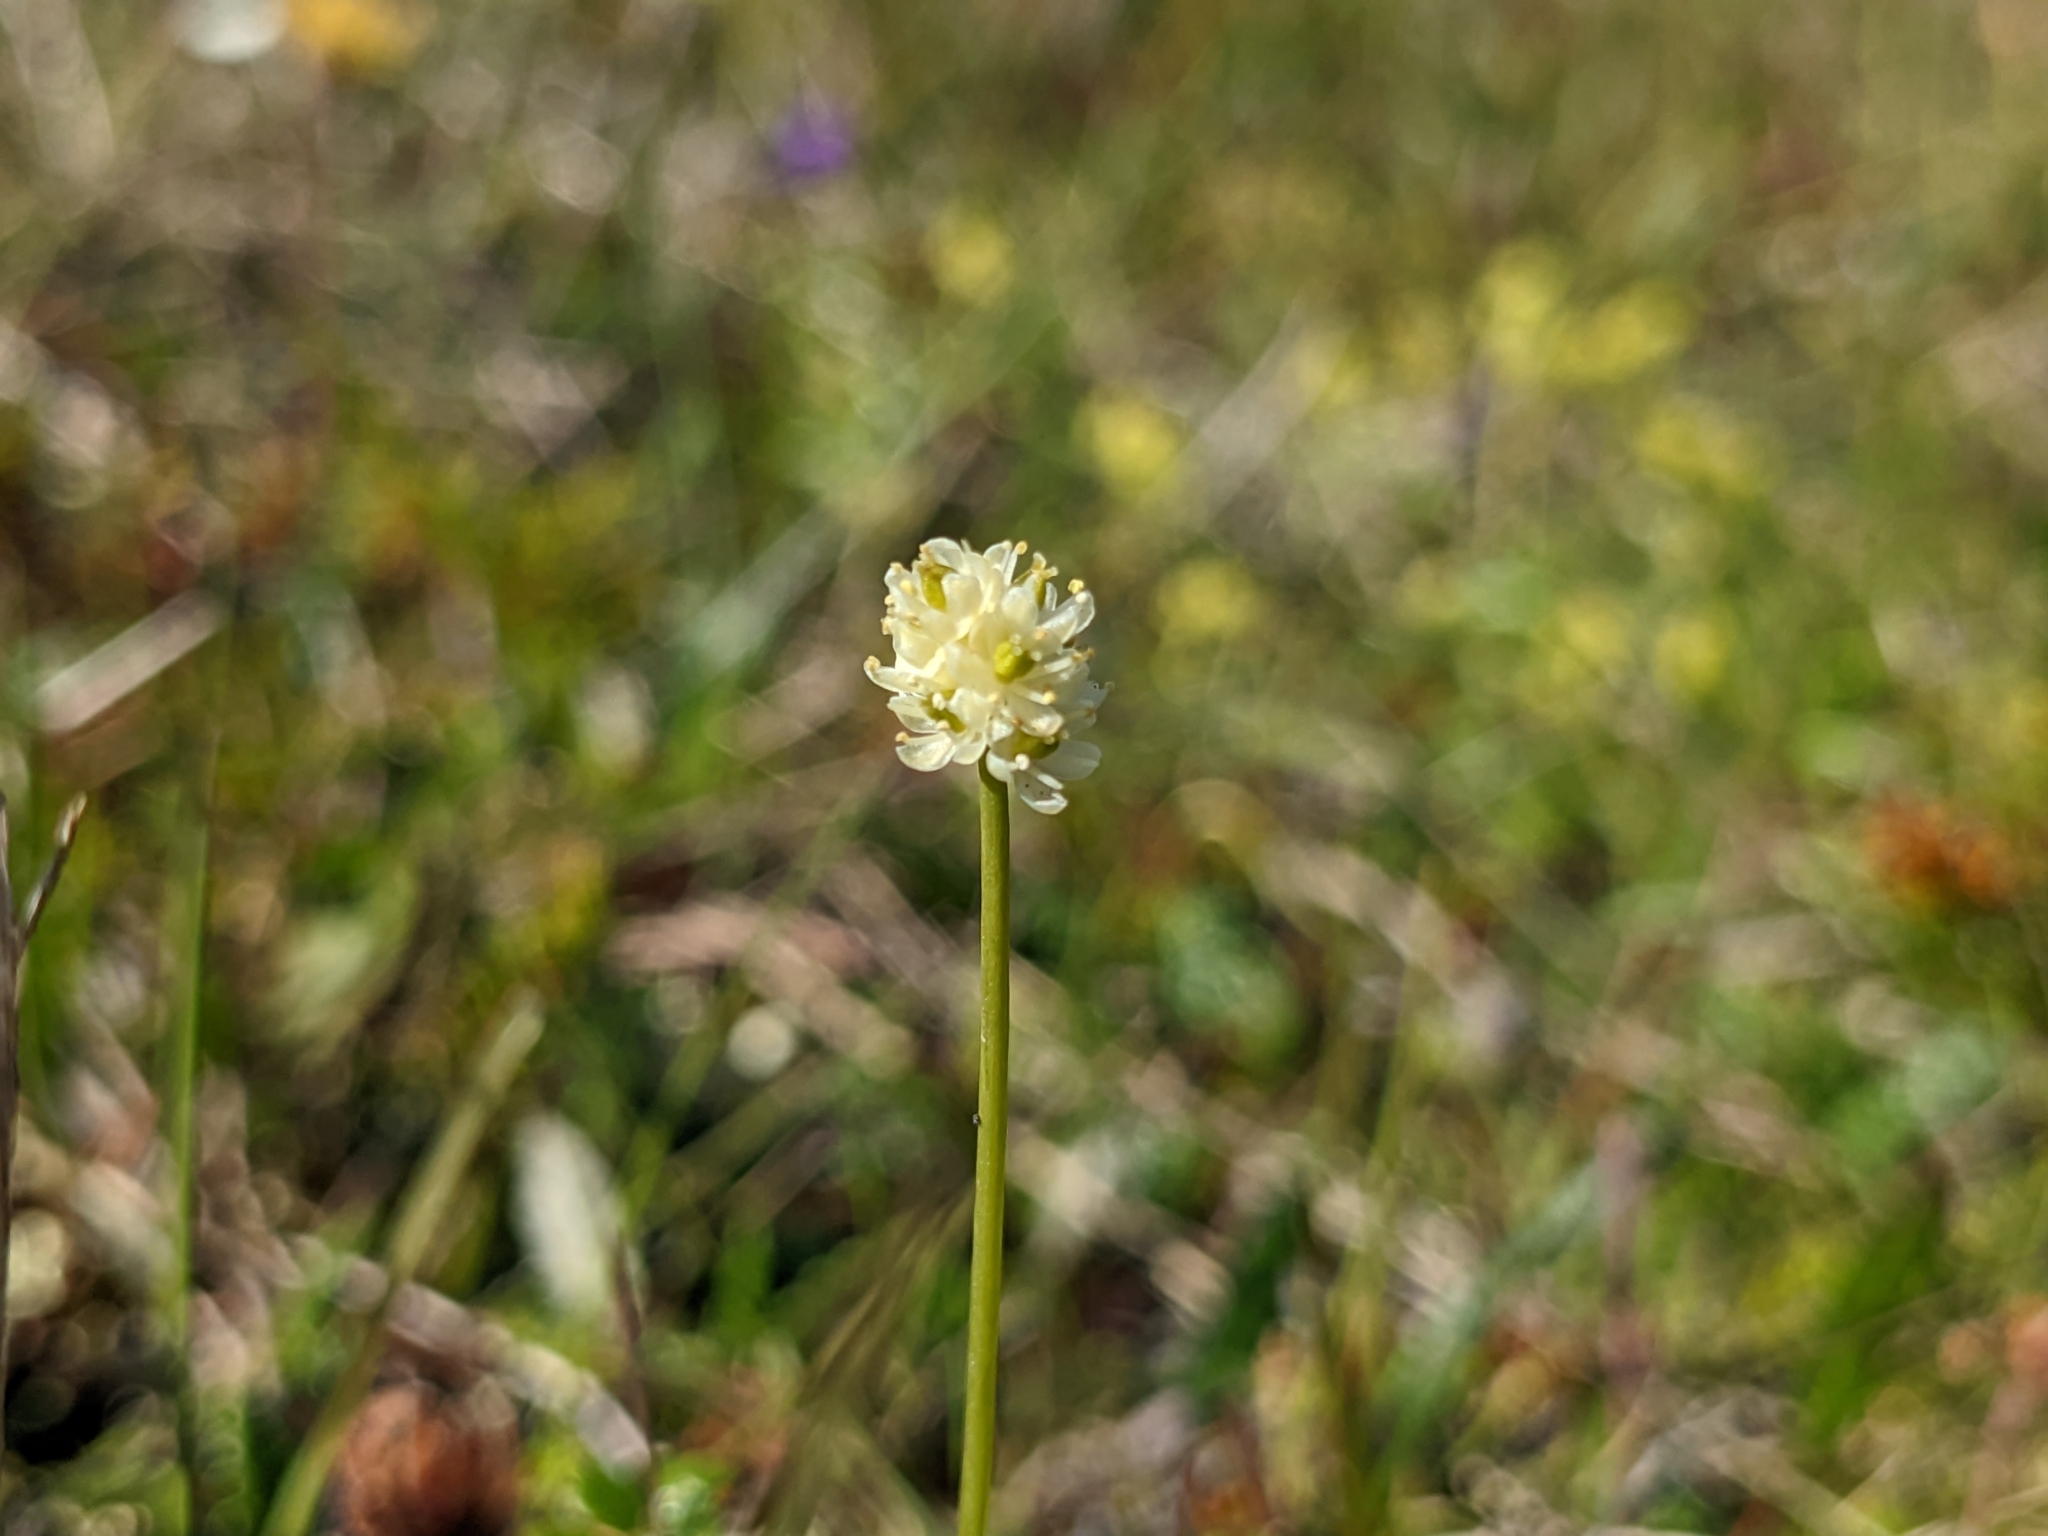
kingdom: Plantae
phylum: Tracheophyta
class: Liliopsida
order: Alismatales
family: Tofieldiaceae
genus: Tofieldia
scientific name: Tofieldia pusilla
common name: Scottish false asphodel
